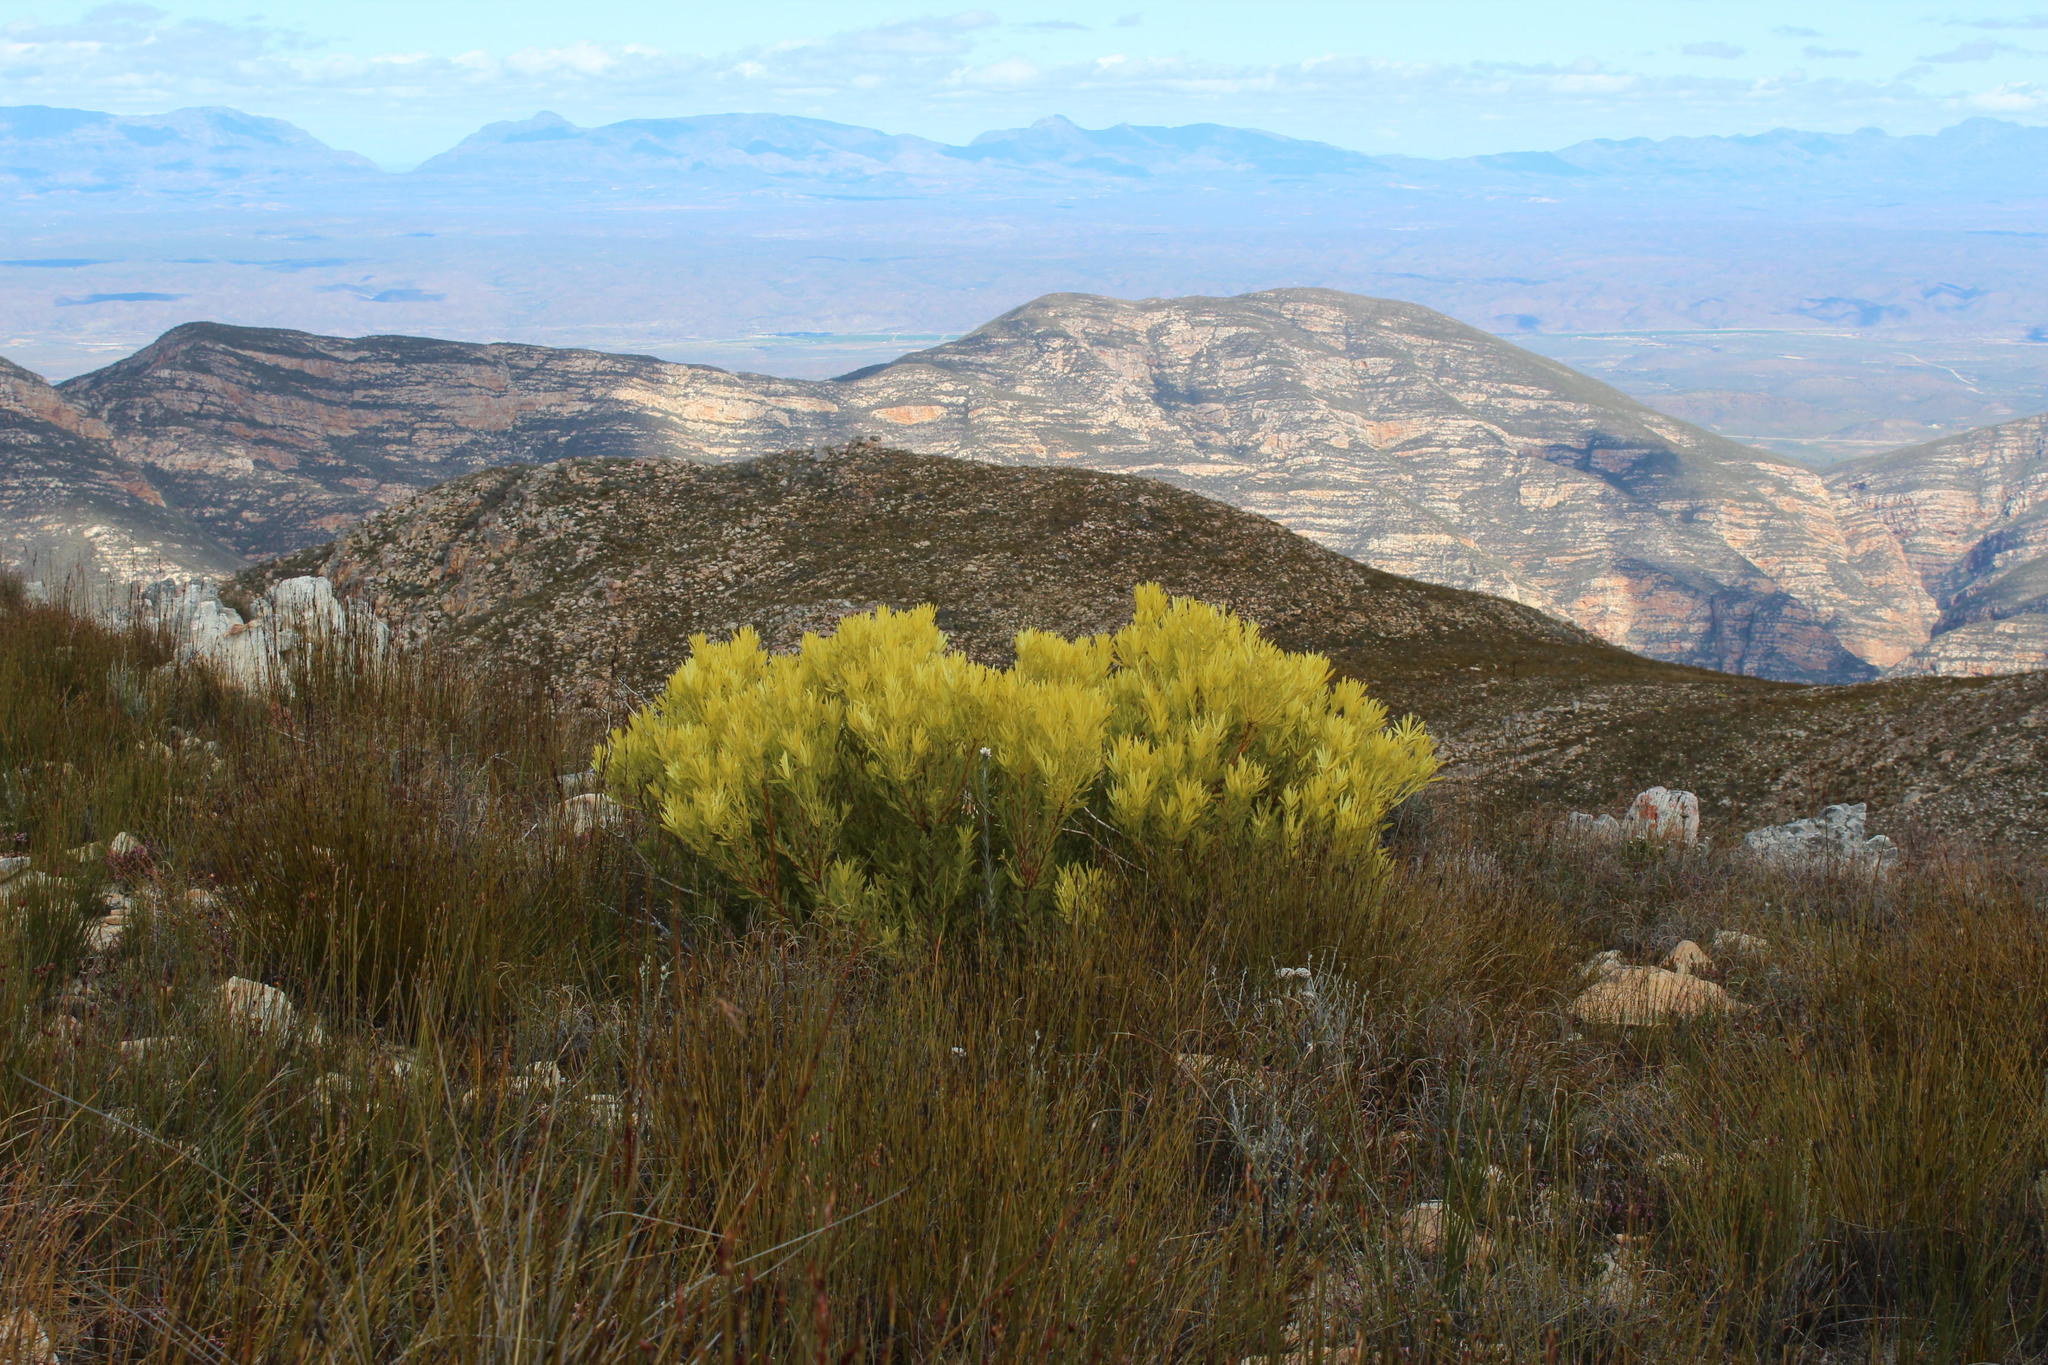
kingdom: Plantae
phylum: Tracheophyta
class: Magnoliopsida
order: Proteales
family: Proteaceae
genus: Leucadendron
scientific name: Leucadendron salignum
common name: Common sunshine conebush
